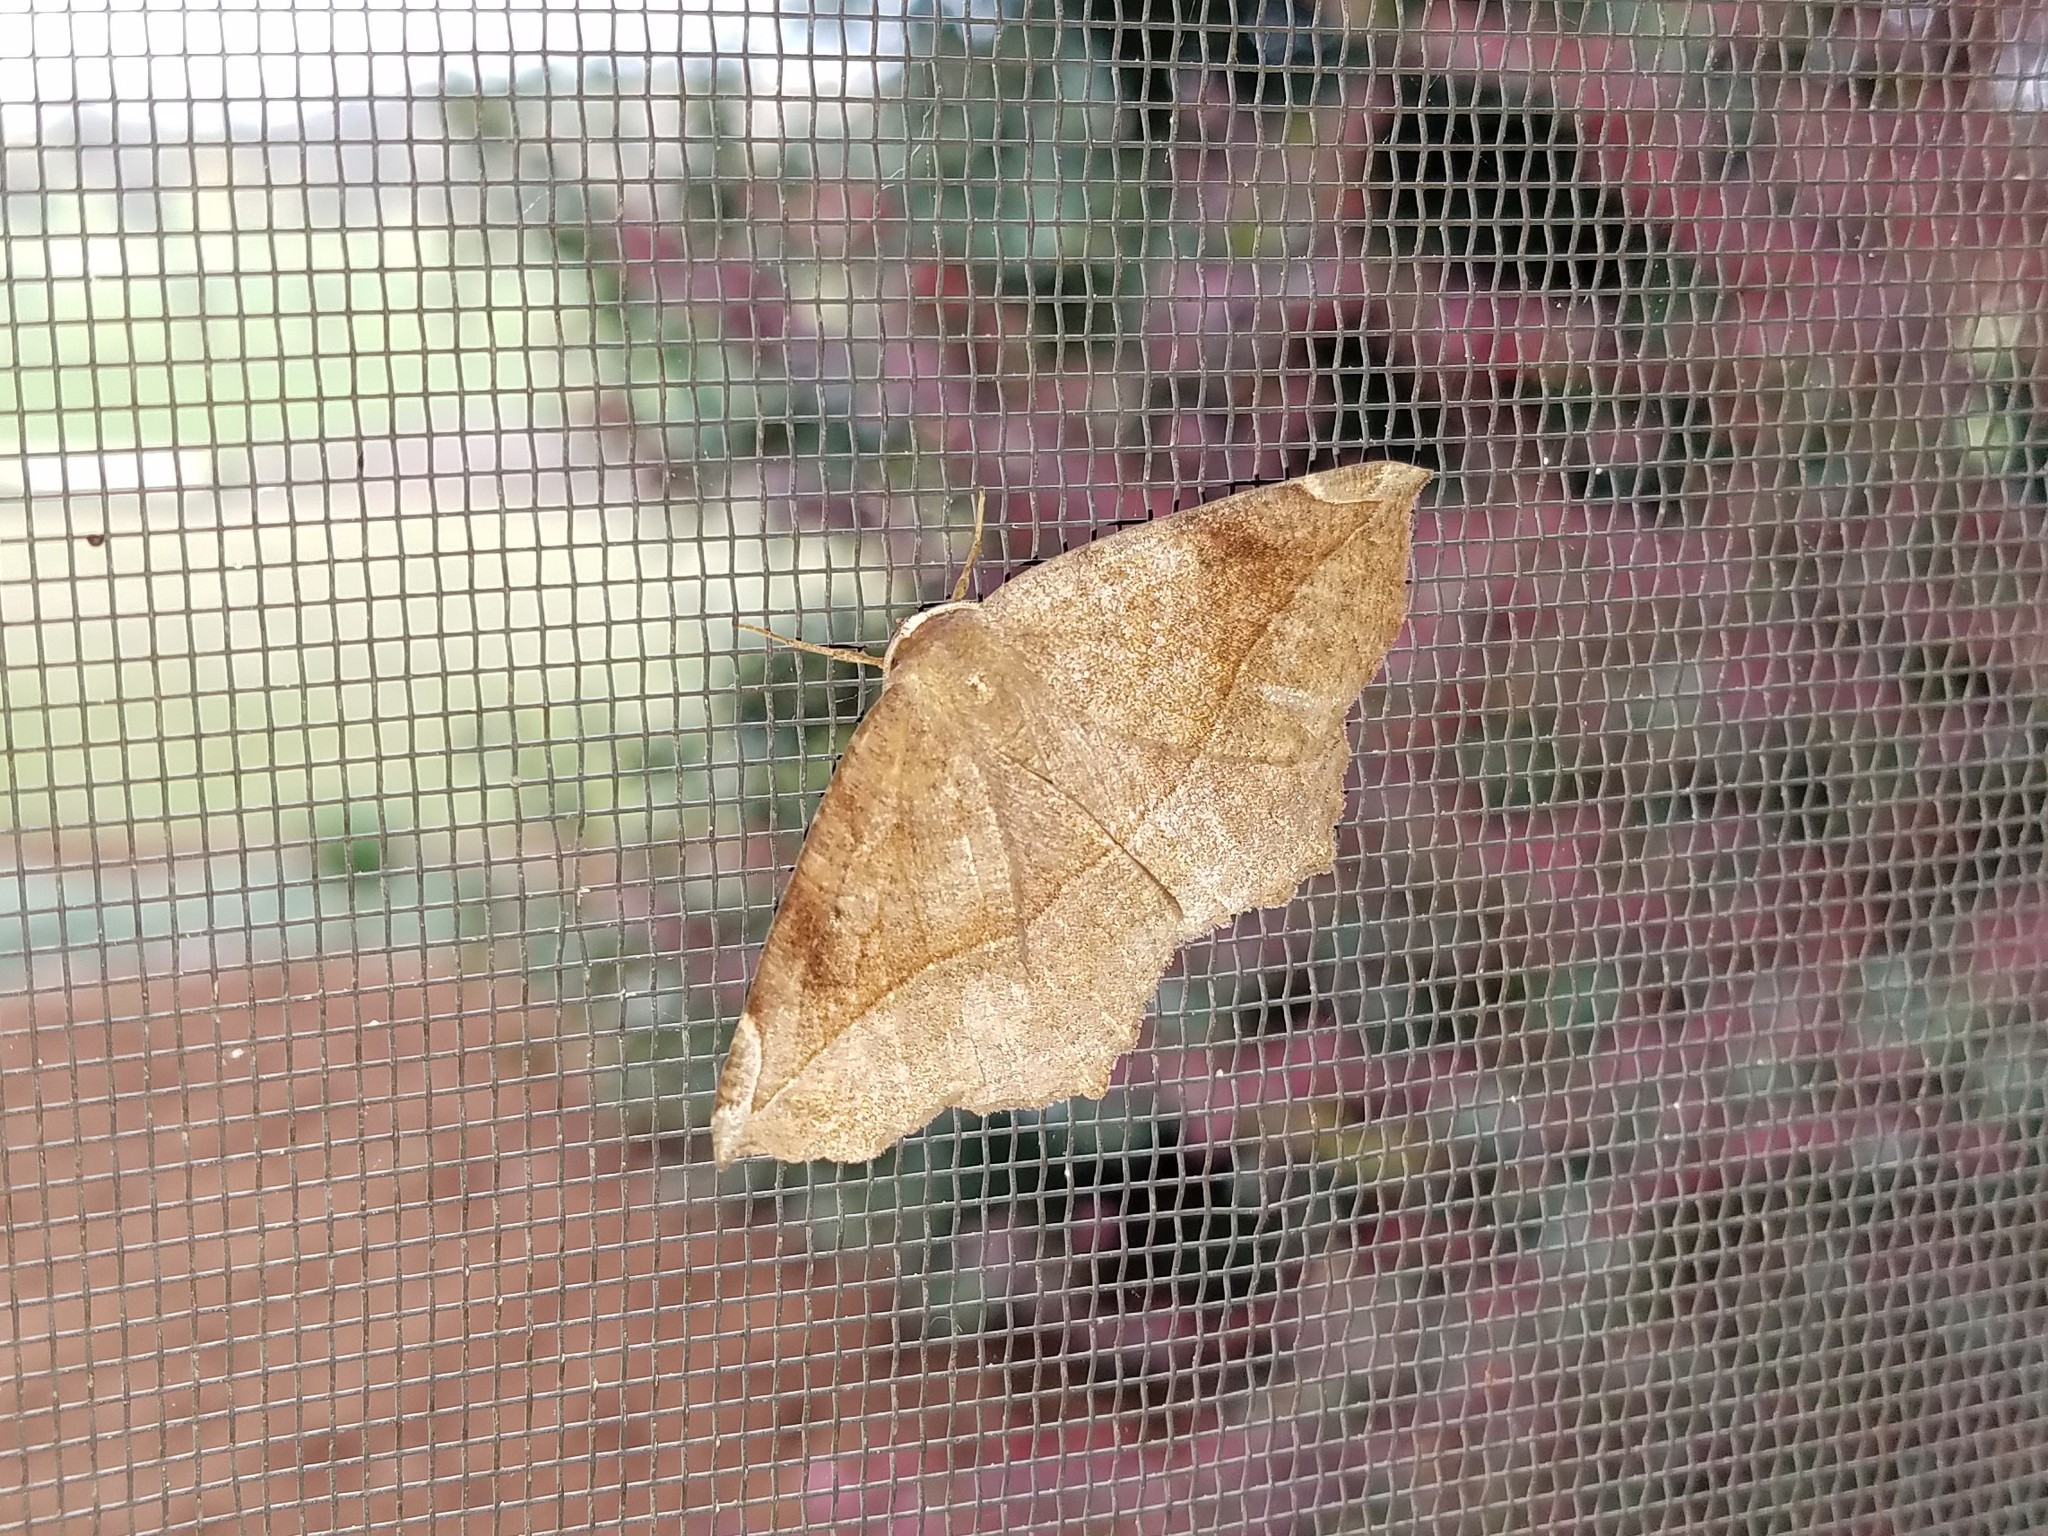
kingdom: Animalia
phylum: Arthropoda
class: Insecta
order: Lepidoptera
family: Geometridae
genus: Eutrapela
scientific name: Eutrapela clemataria
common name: Curved-toothed geometer
